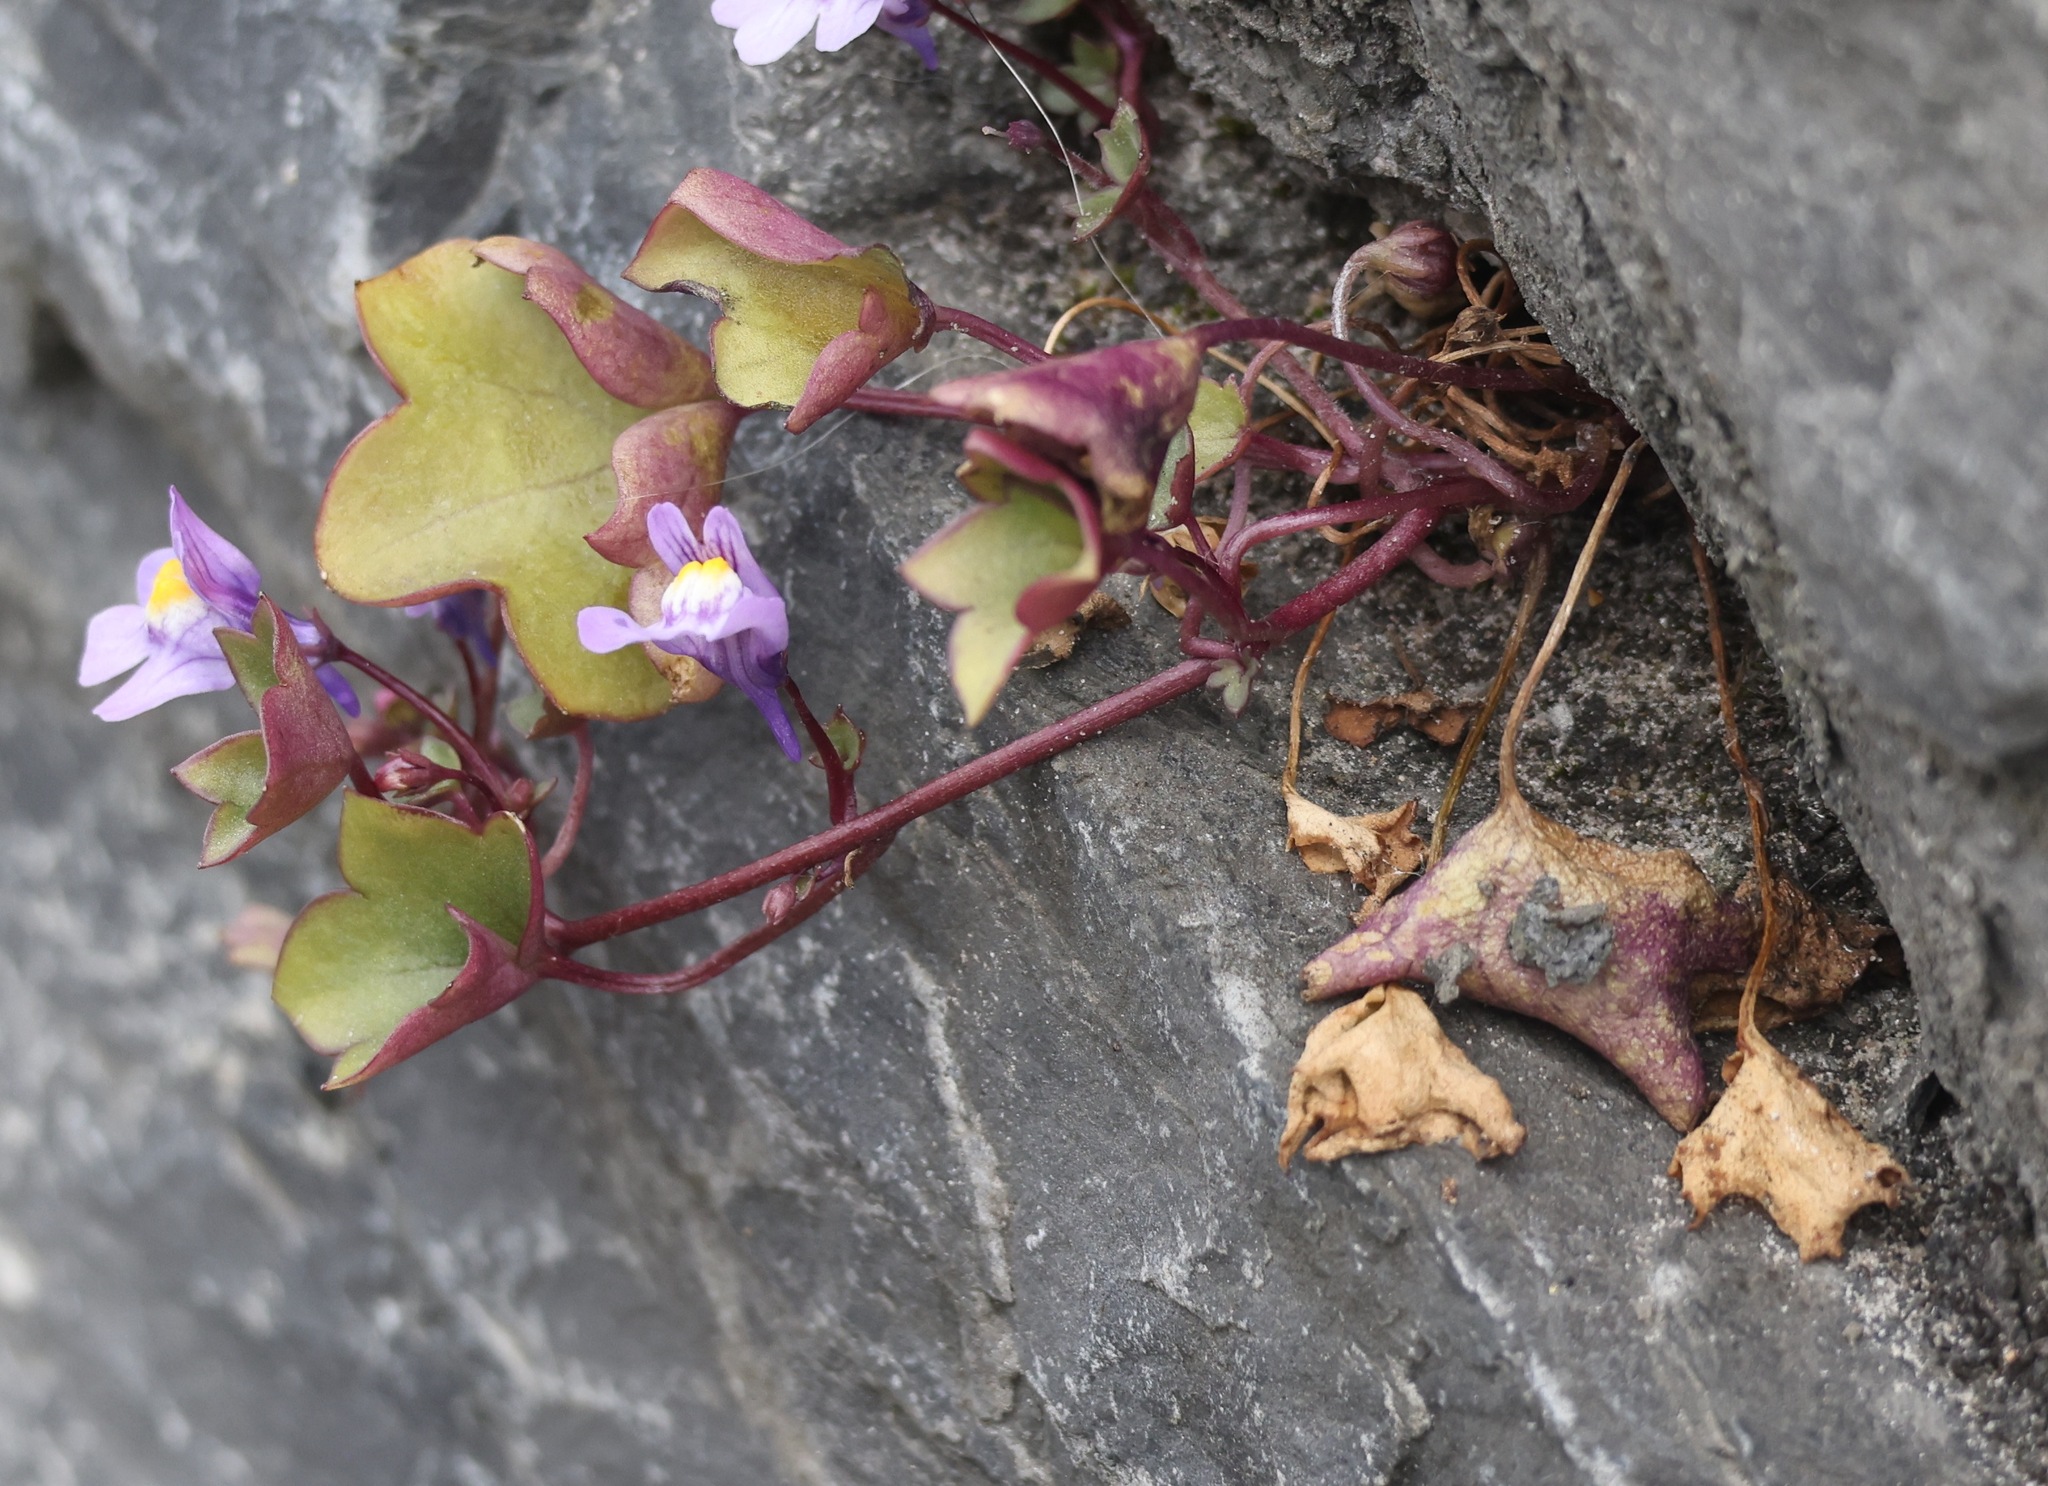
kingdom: Plantae
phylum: Tracheophyta
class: Magnoliopsida
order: Lamiales
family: Plantaginaceae
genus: Cymbalaria
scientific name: Cymbalaria muralis
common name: Ivy-leaved toadflax
